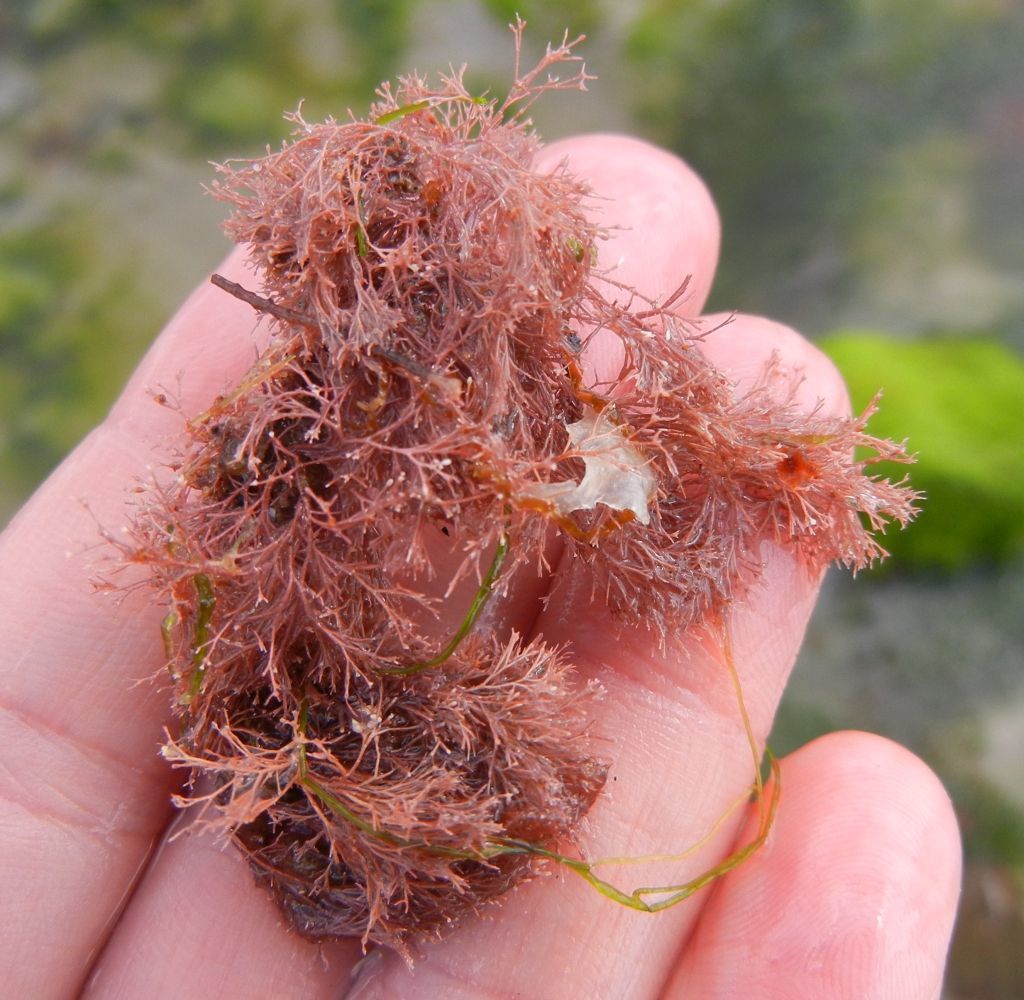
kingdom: Plantae
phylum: Rhodophyta
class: Florideophyceae
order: Corallinales
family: Corallinaceae
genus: Corallina
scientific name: Corallina officinalis
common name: Coral weed
